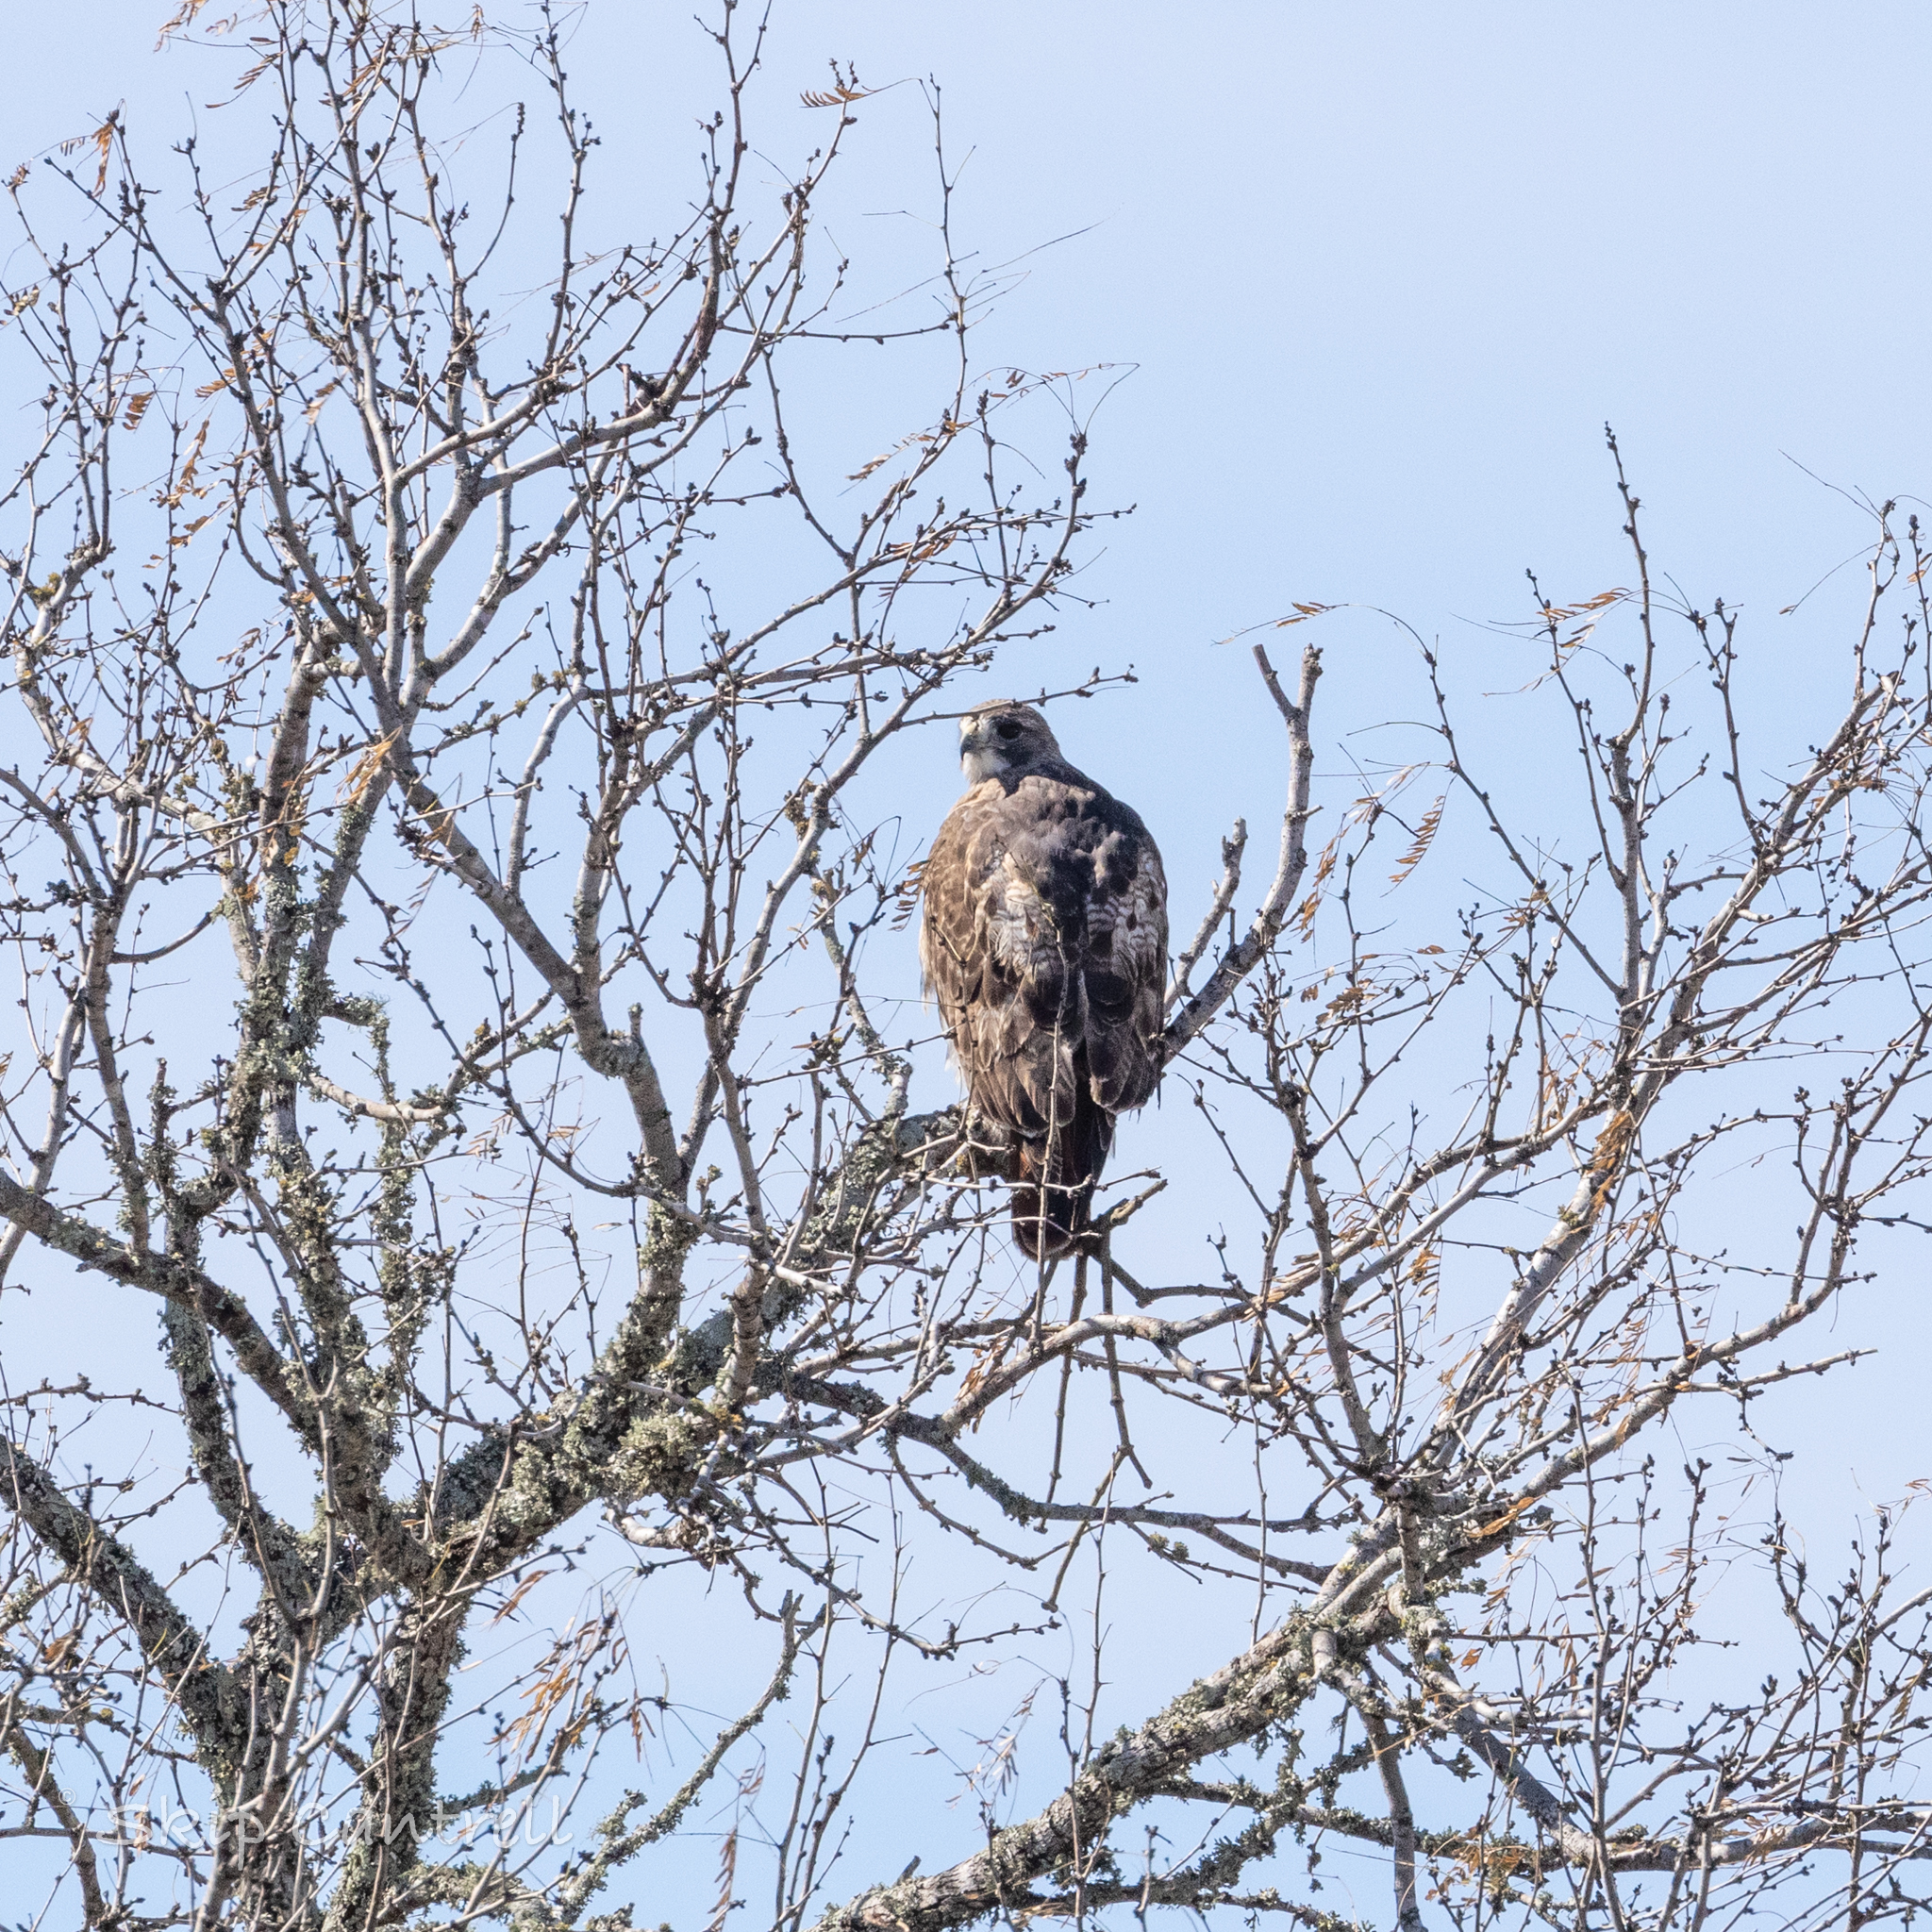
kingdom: Animalia
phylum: Chordata
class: Aves
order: Accipitriformes
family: Accipitridae
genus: Buteo
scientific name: Buteo jamaicensis
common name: Red-tailed hawk
